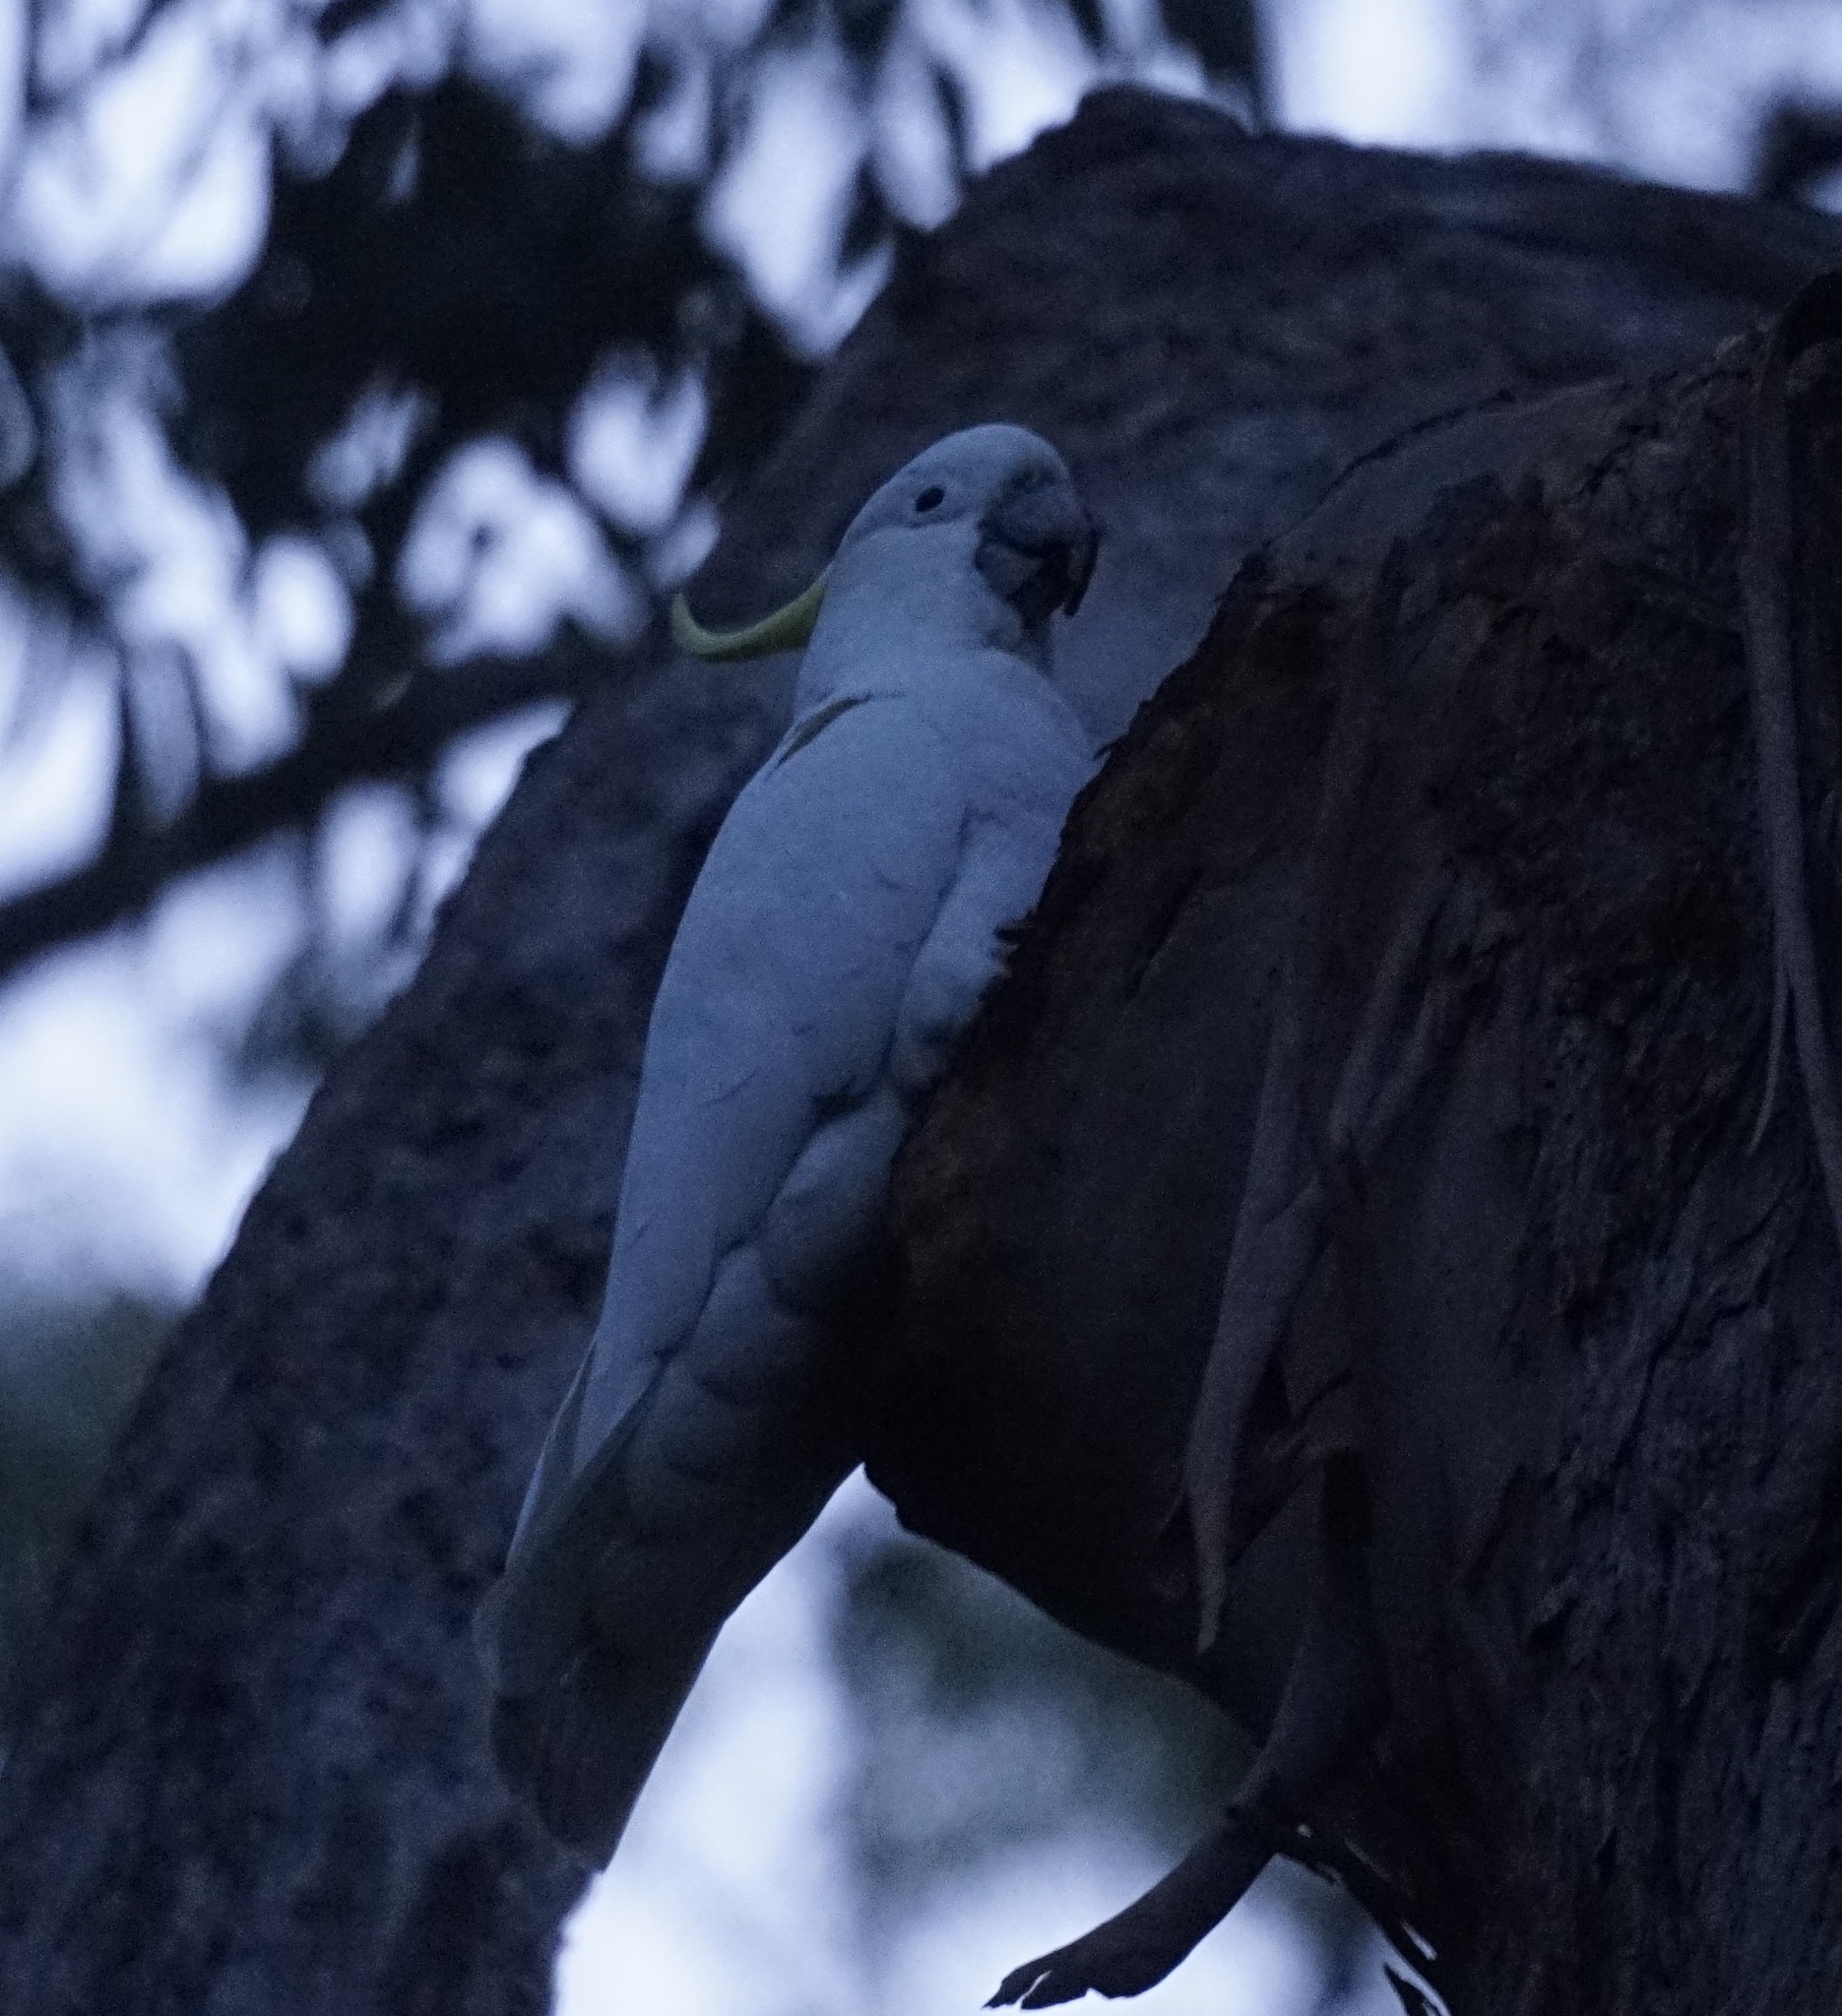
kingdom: Animalia
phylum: Chordata
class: Aves
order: Psittaciformes
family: Psittacidae
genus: Cacatua
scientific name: Cacatua galerita
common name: Sulphur-crested cockatoo
